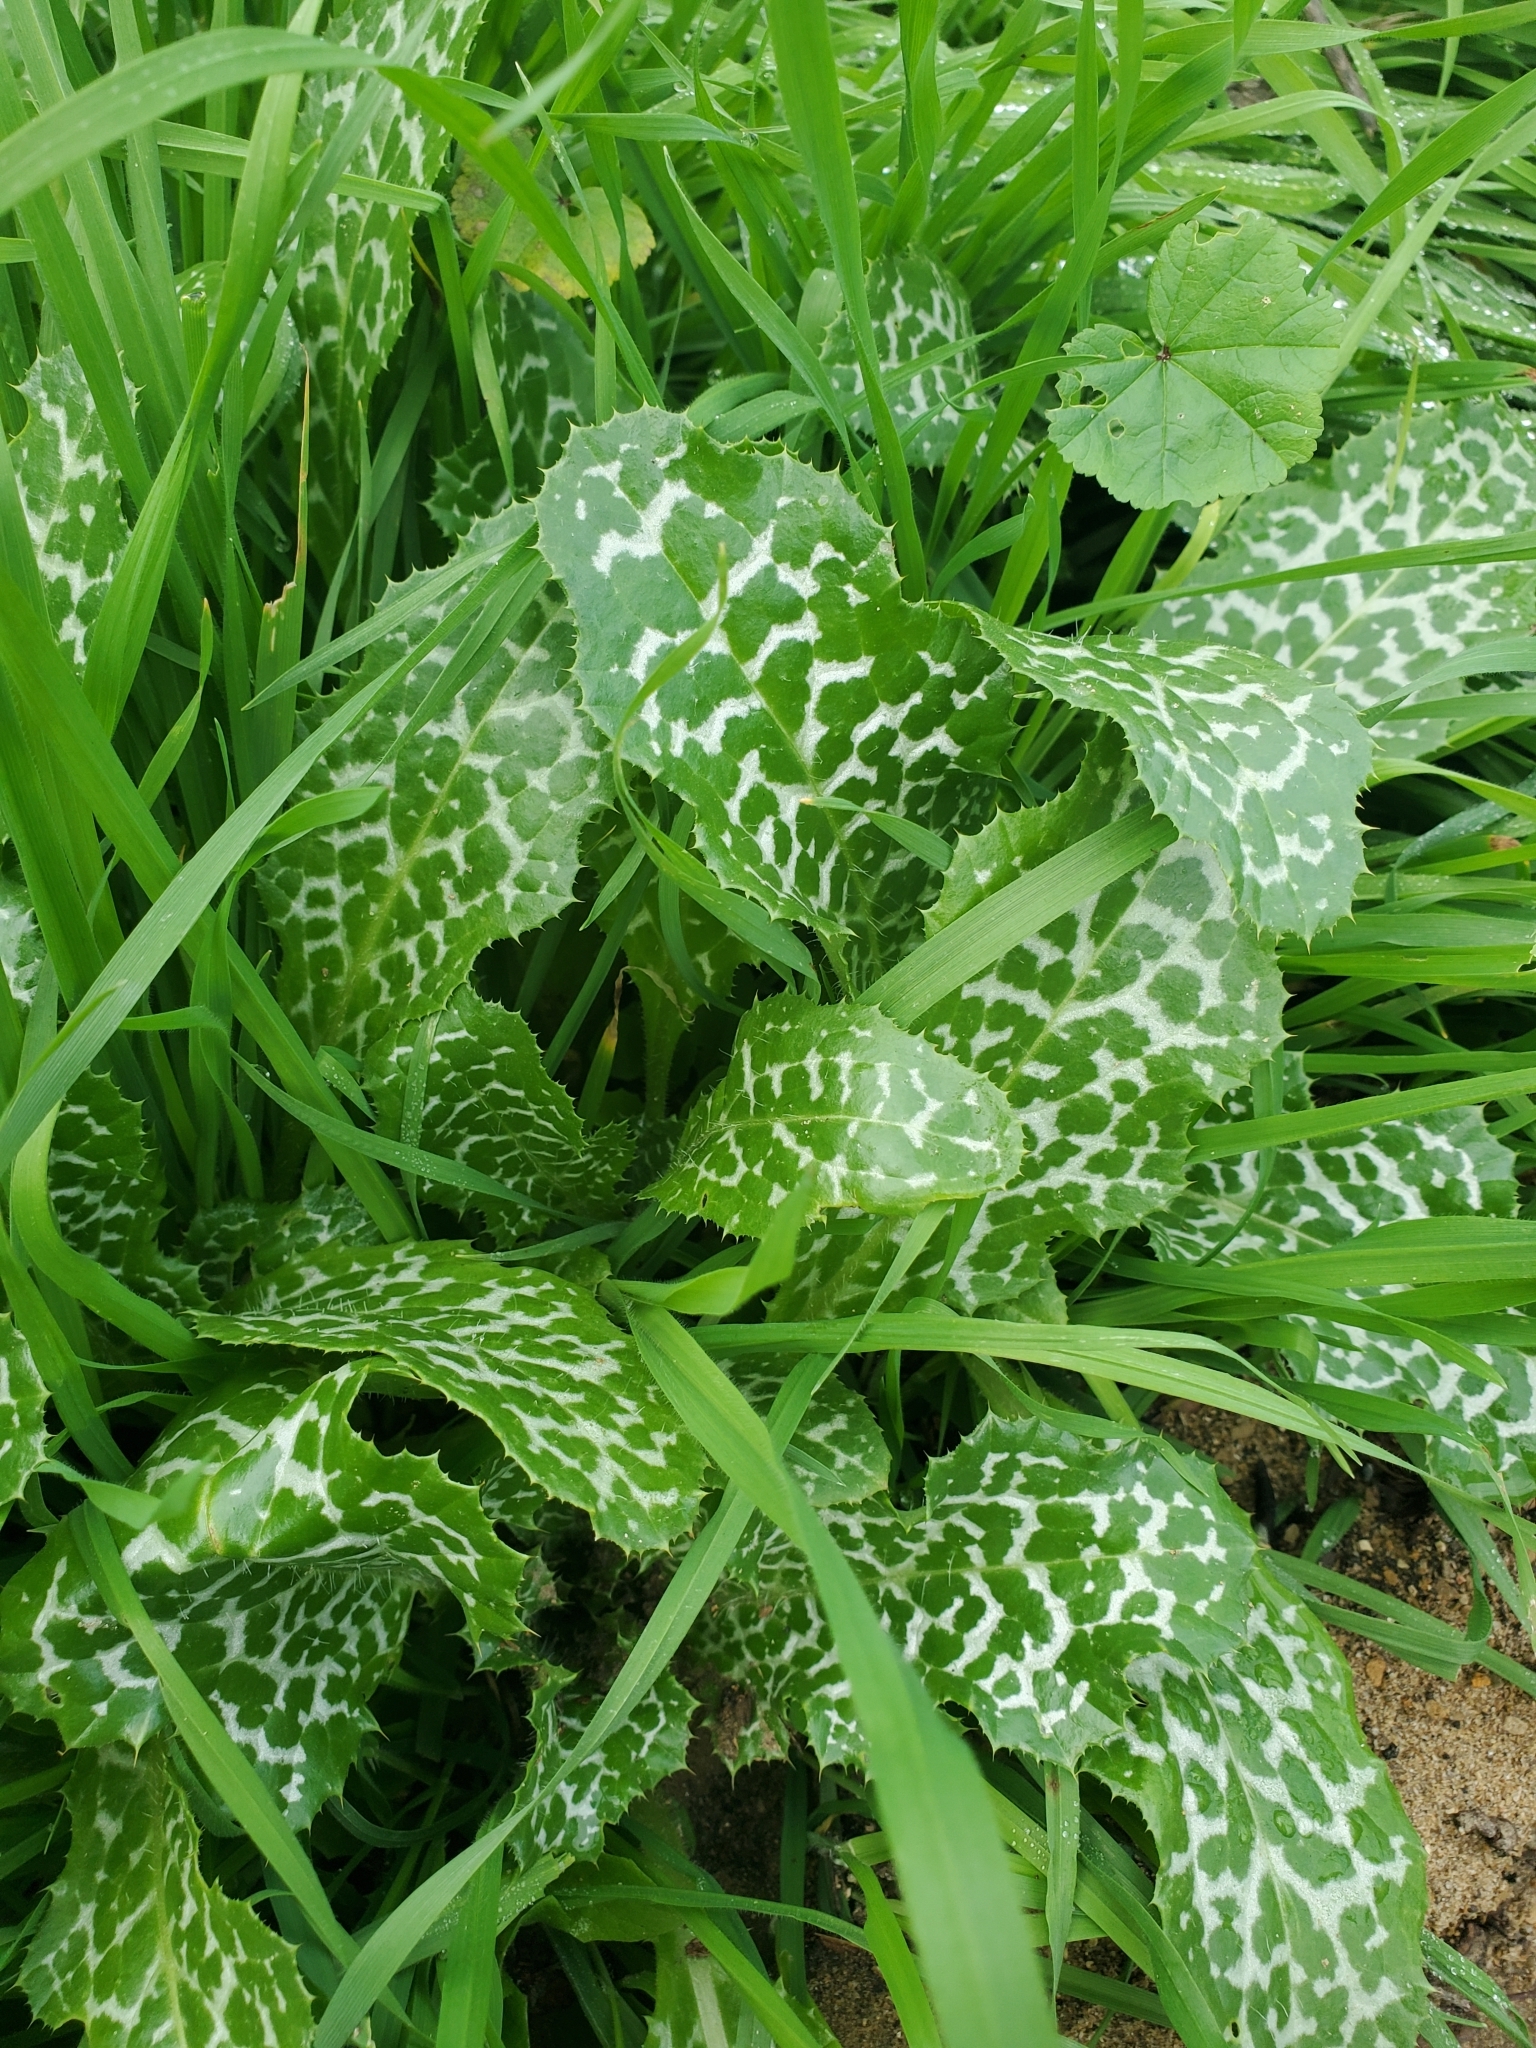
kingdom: Plantae
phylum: Tracheophyta
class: Magnoliopsida
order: Asterales
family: Asteraceae
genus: Silybum
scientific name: Silybum marianum
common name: Milk thistle
